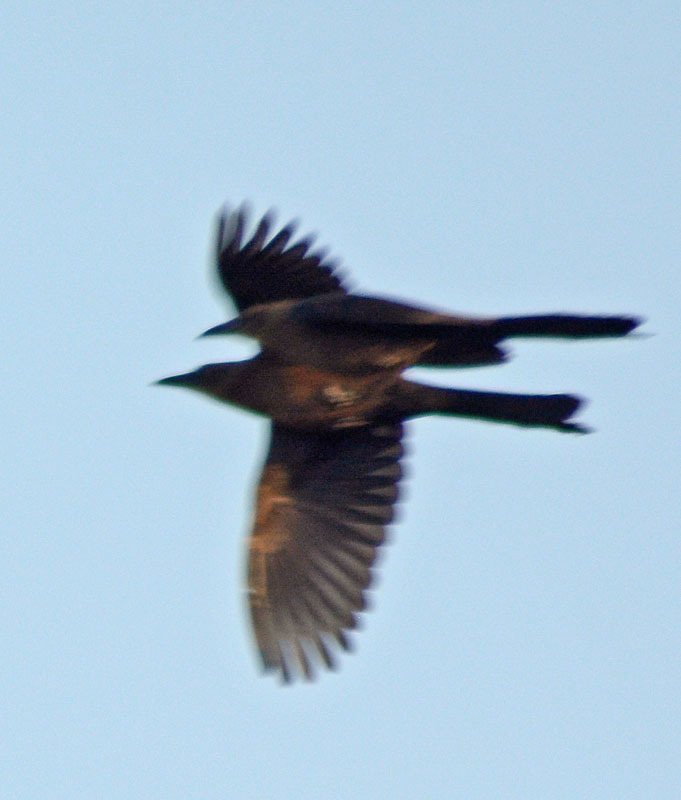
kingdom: Animalia
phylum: Chordata
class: Aves
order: Passeriformes
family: Icteridae
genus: Quiscalus
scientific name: Quiscalus mexicanus
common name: Great-tailed grackle
